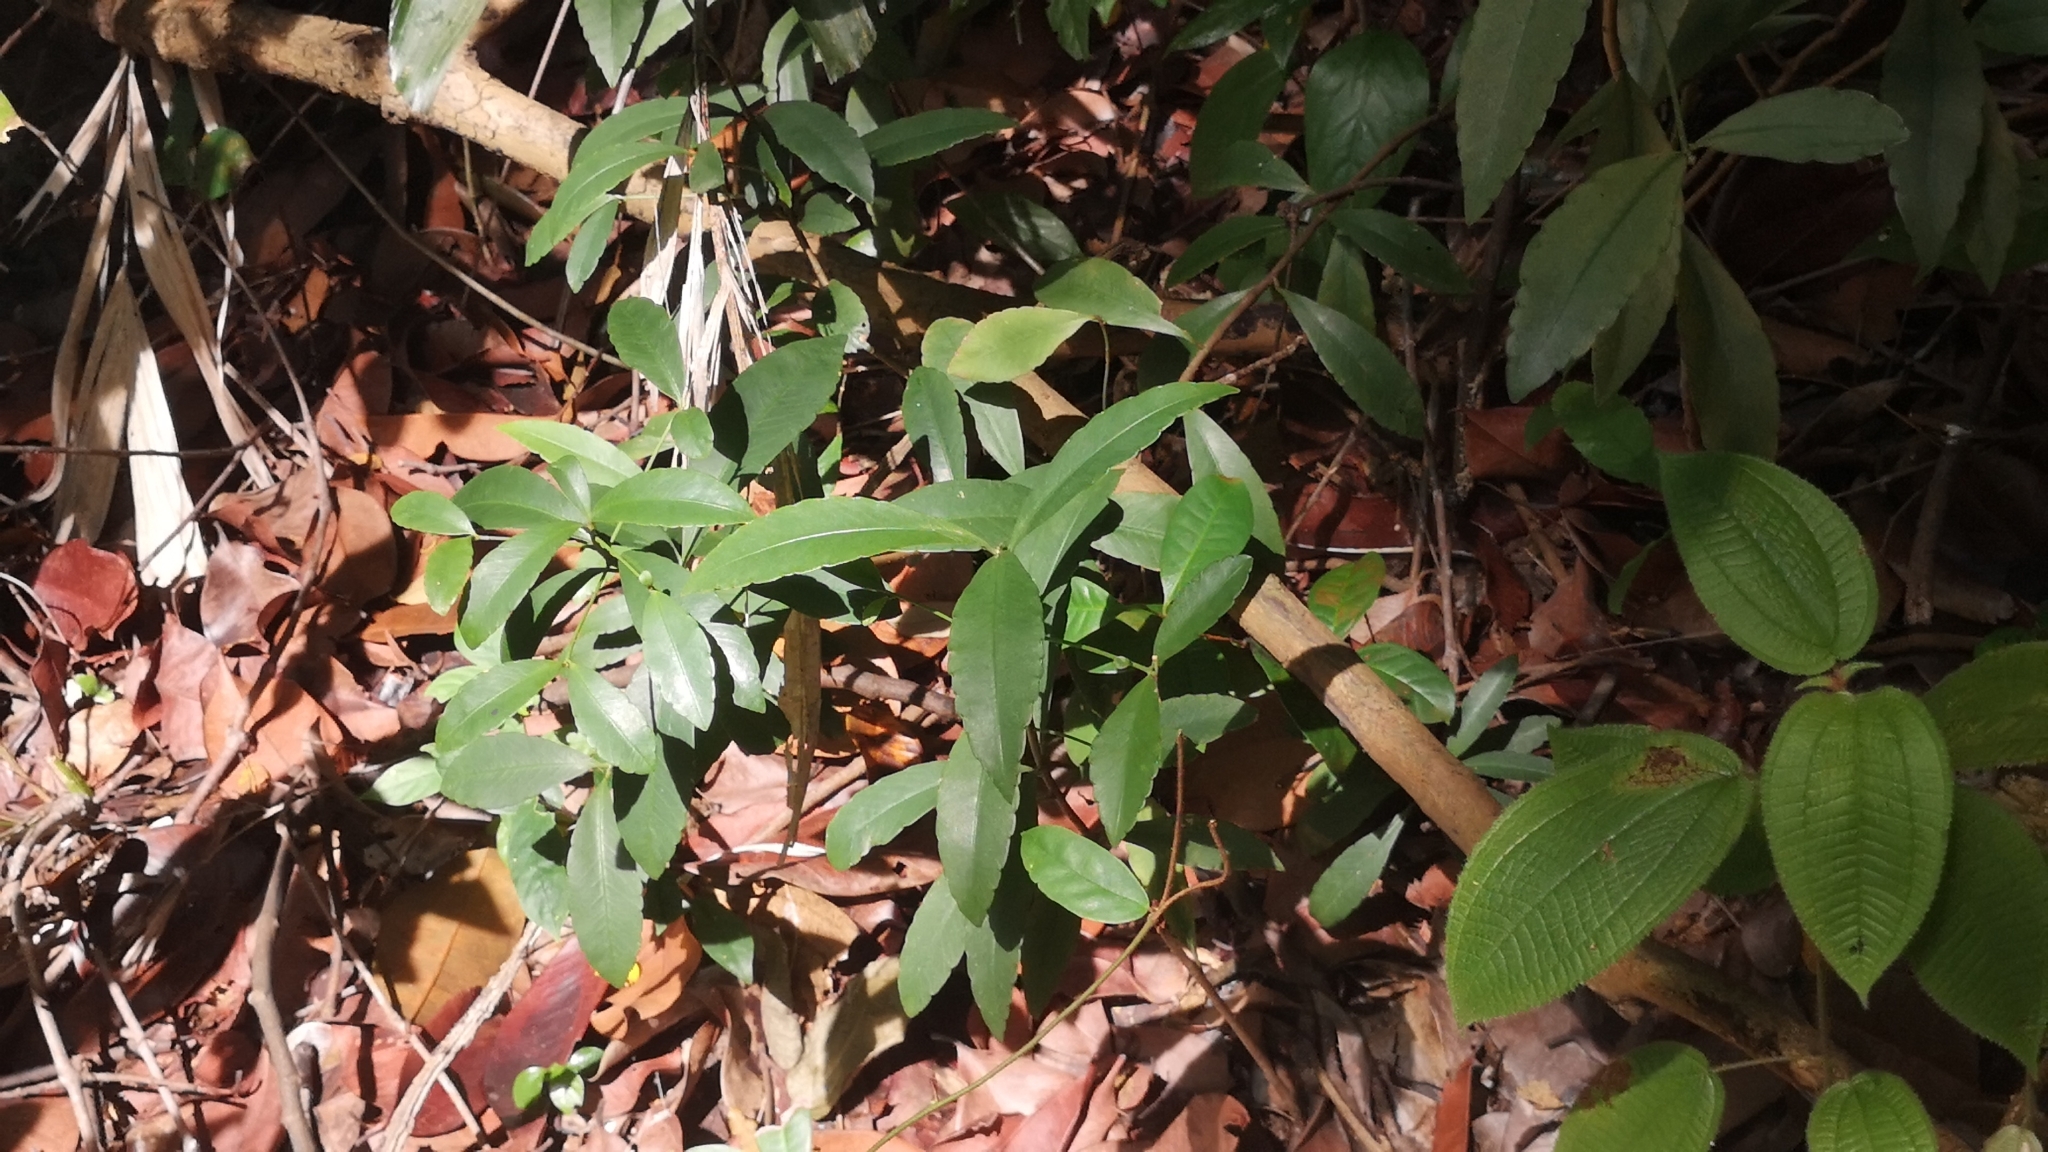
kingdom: Plantae
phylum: Tracheophyta
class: Magnoliopsida
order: Ericales
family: Primulaceae
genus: Ardisia
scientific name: Ardisia crenata
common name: Hen's eyes
